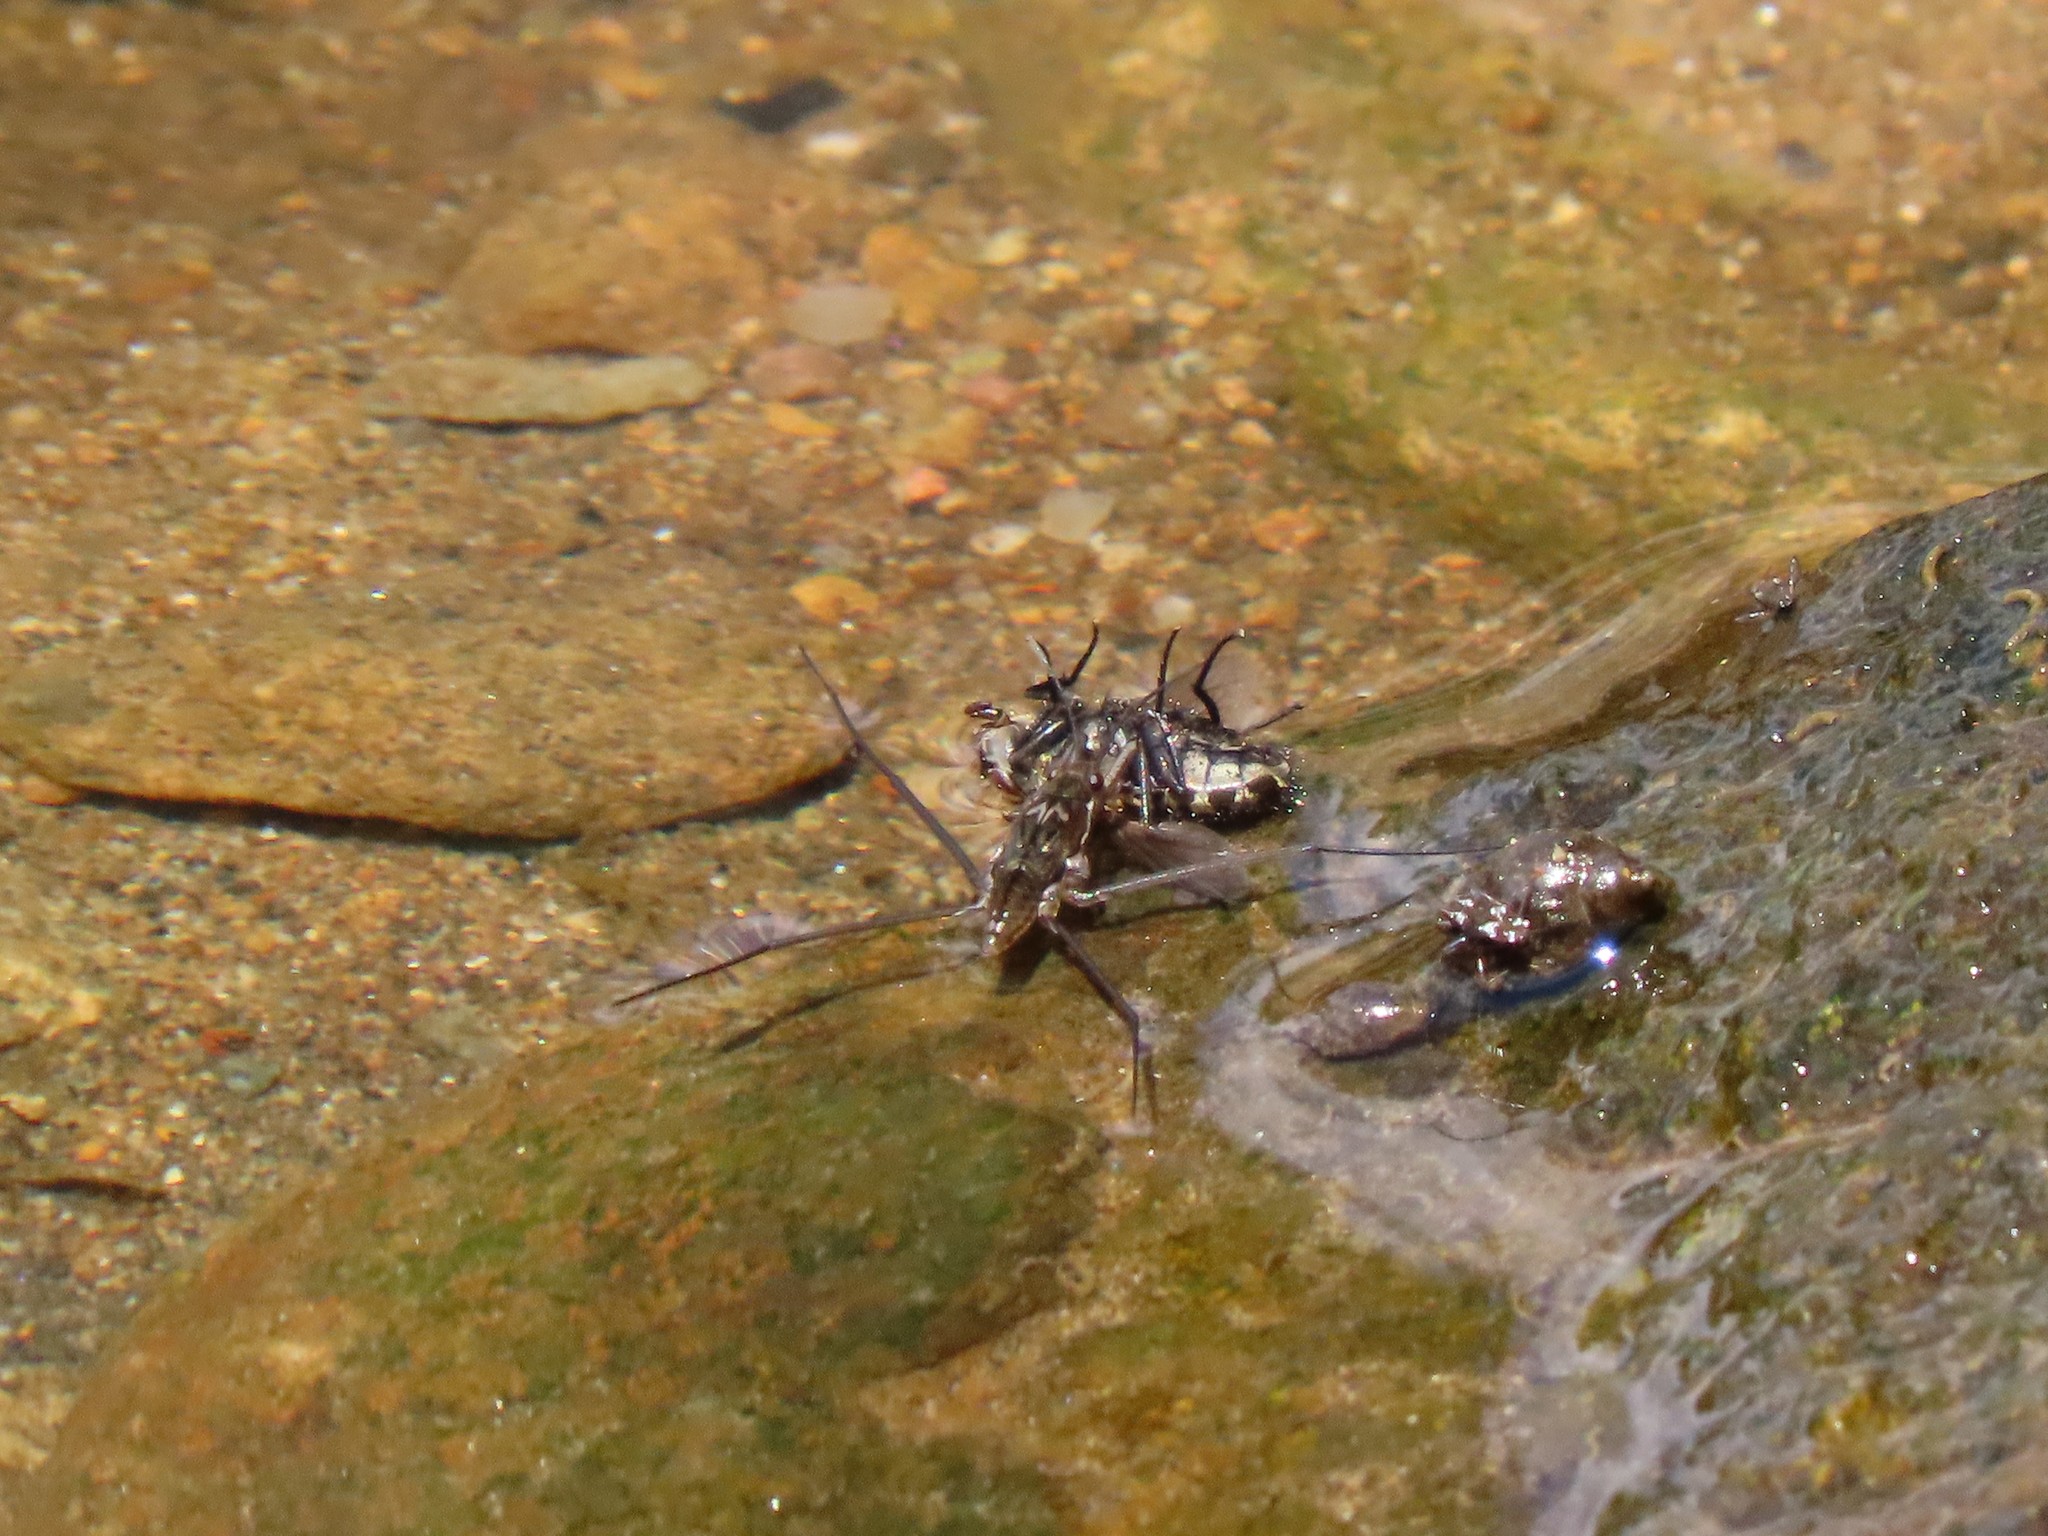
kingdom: Animalia
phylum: Arthropoda
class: Insecta
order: Hemiptera
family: Gerridae
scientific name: Gerridae
